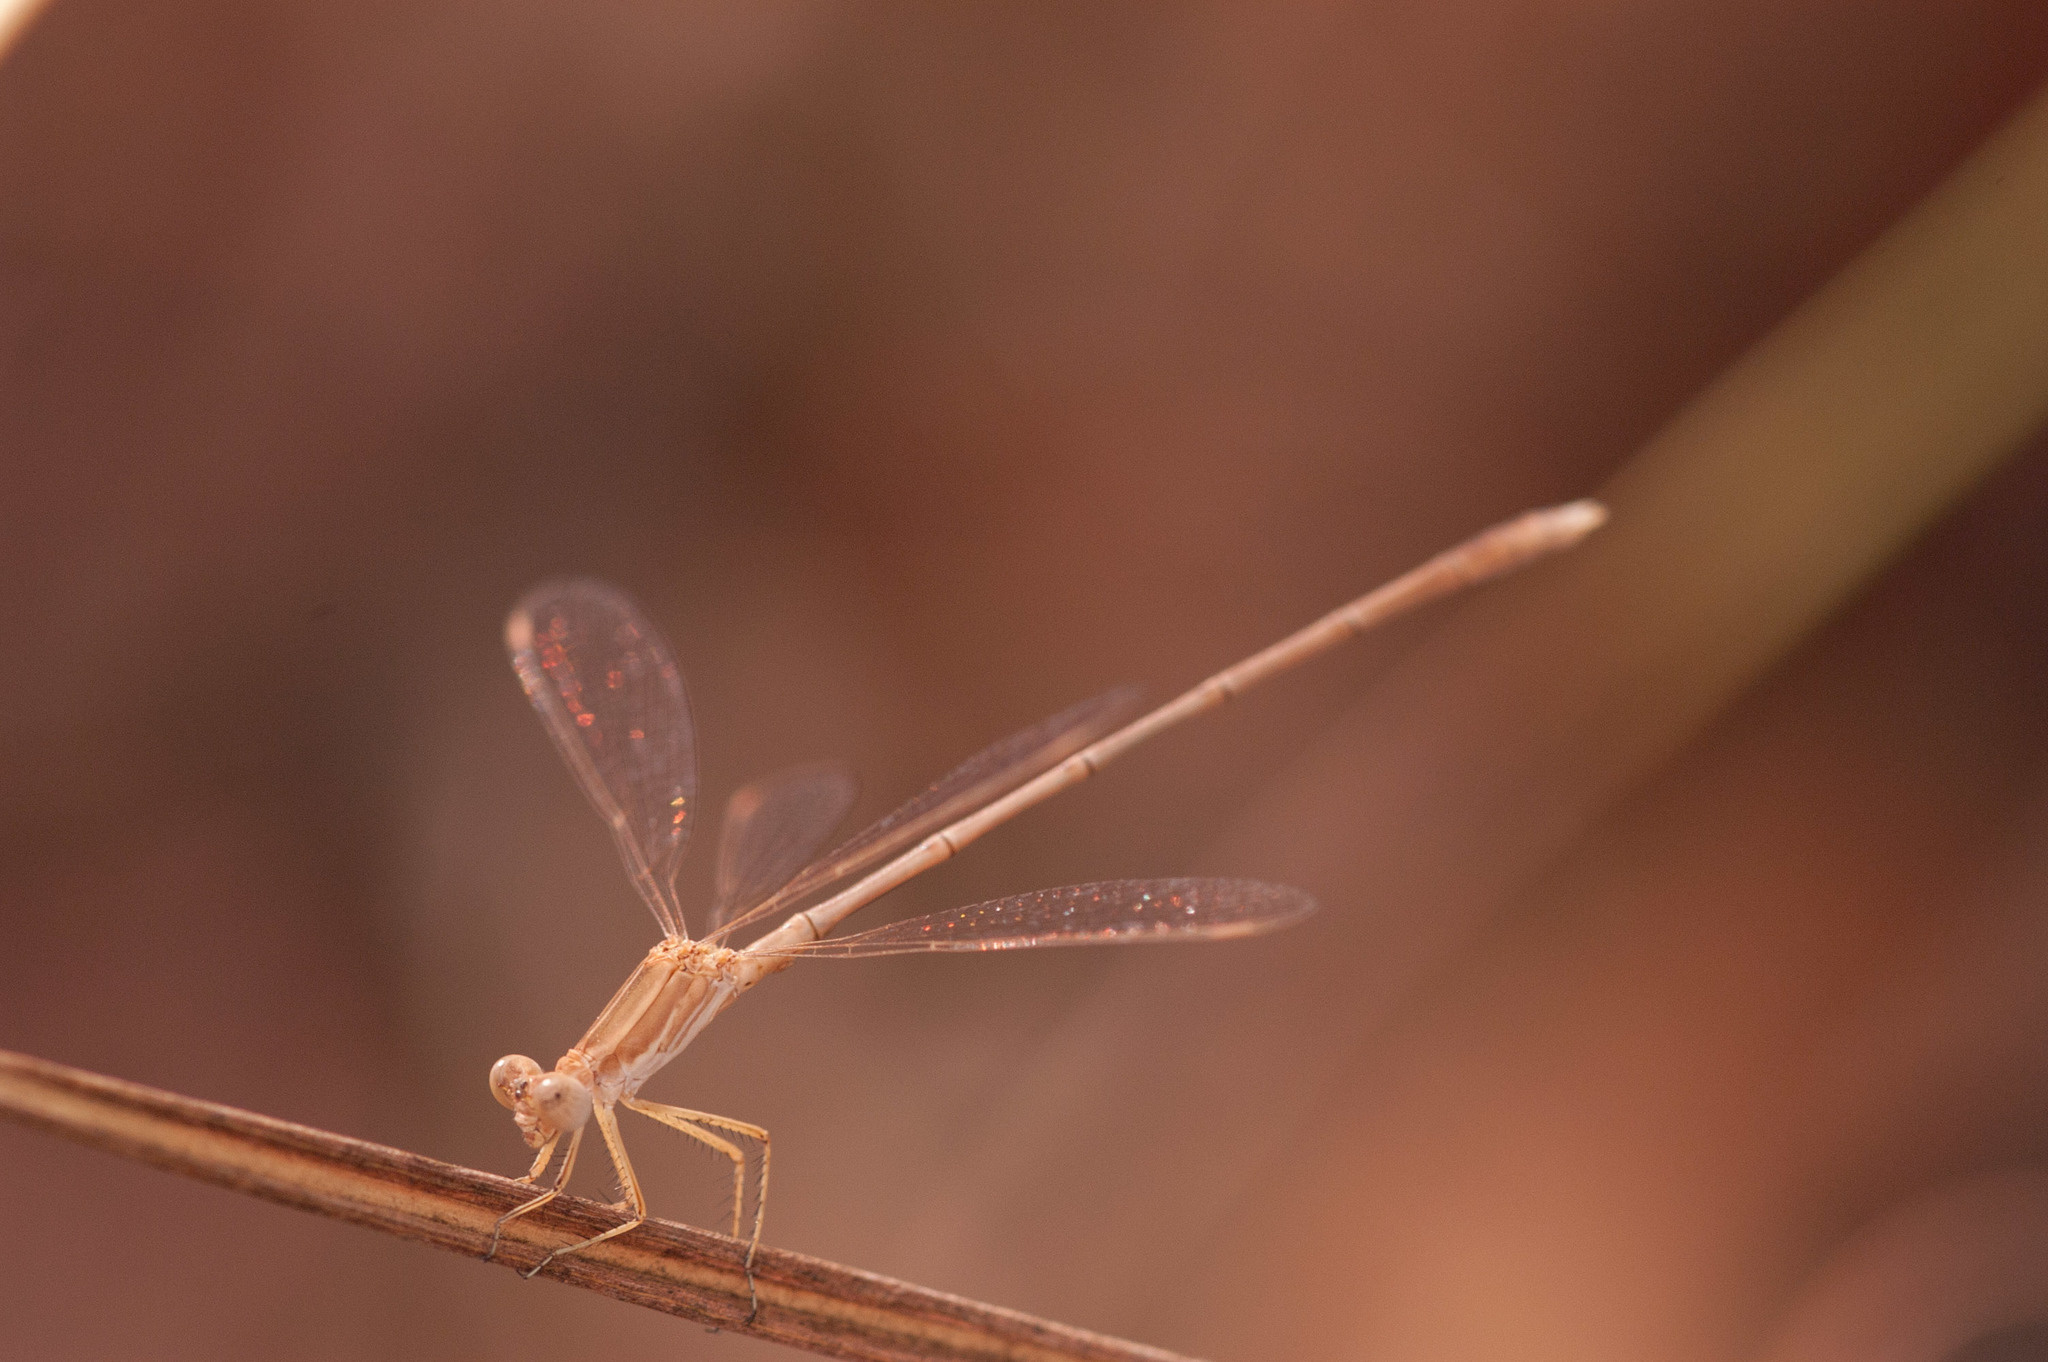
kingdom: Animalia
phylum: Arthropoda
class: Insecta
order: Odonata
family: Lestidae
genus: Lestes
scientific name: Lestes concinnus
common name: Dusky spreadwing
